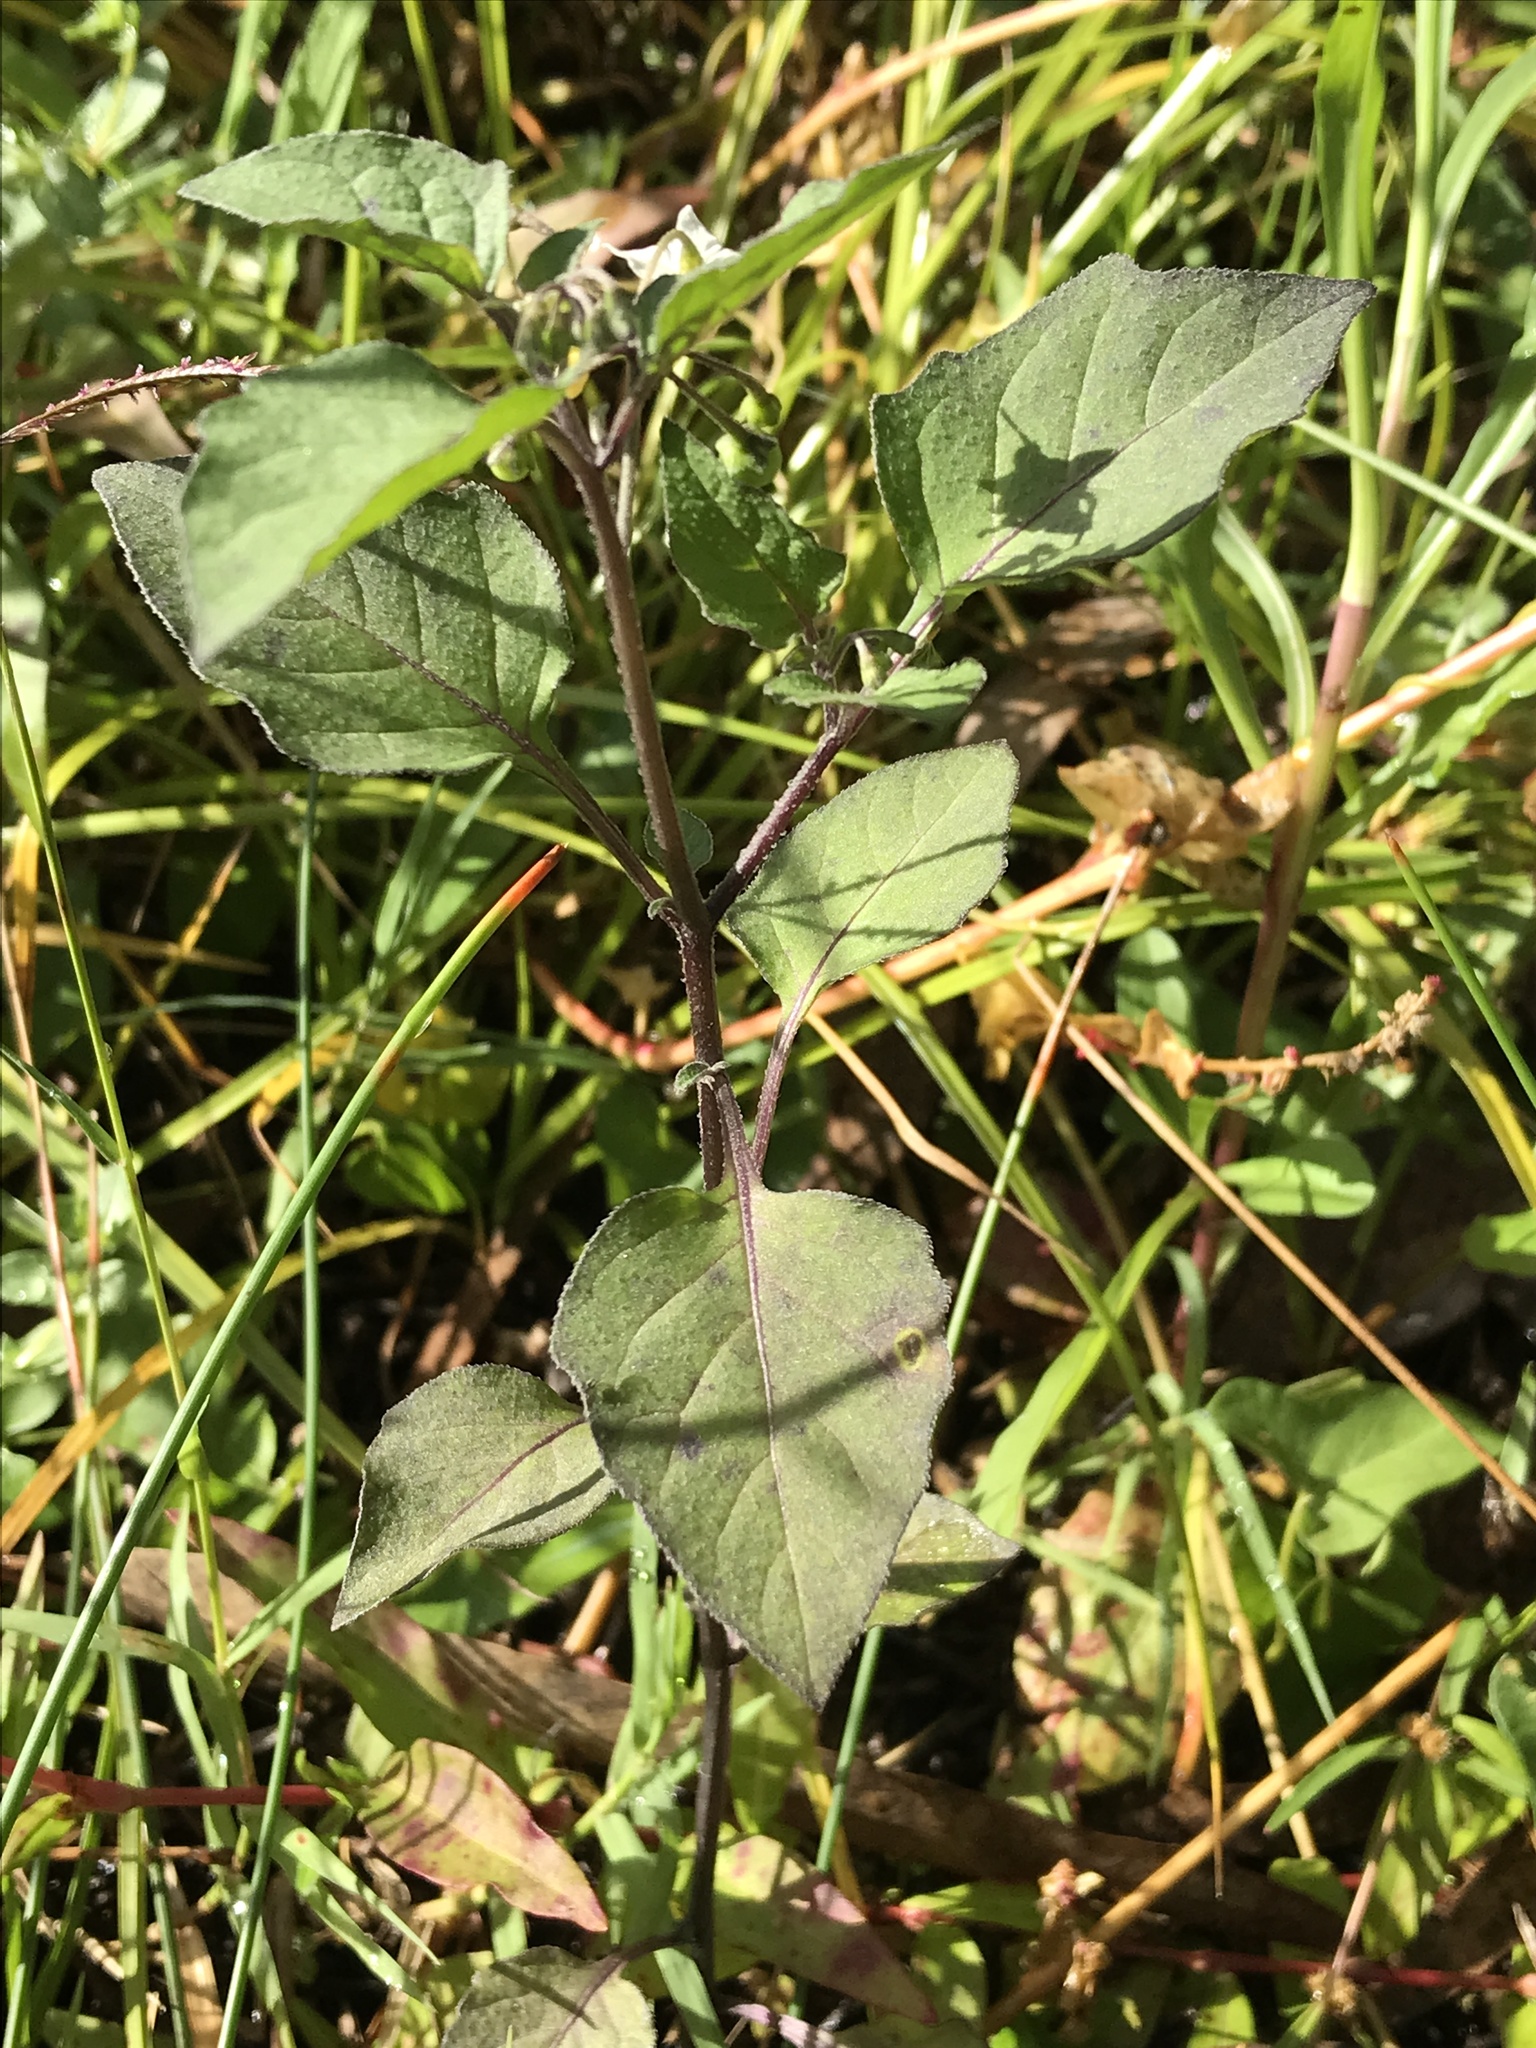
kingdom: Plantae
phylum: Tracheophyta
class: Magnoliopsida
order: Solanales
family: Solanaceae
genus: Solanum
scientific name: Solanum nigrum
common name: Black nightshade
